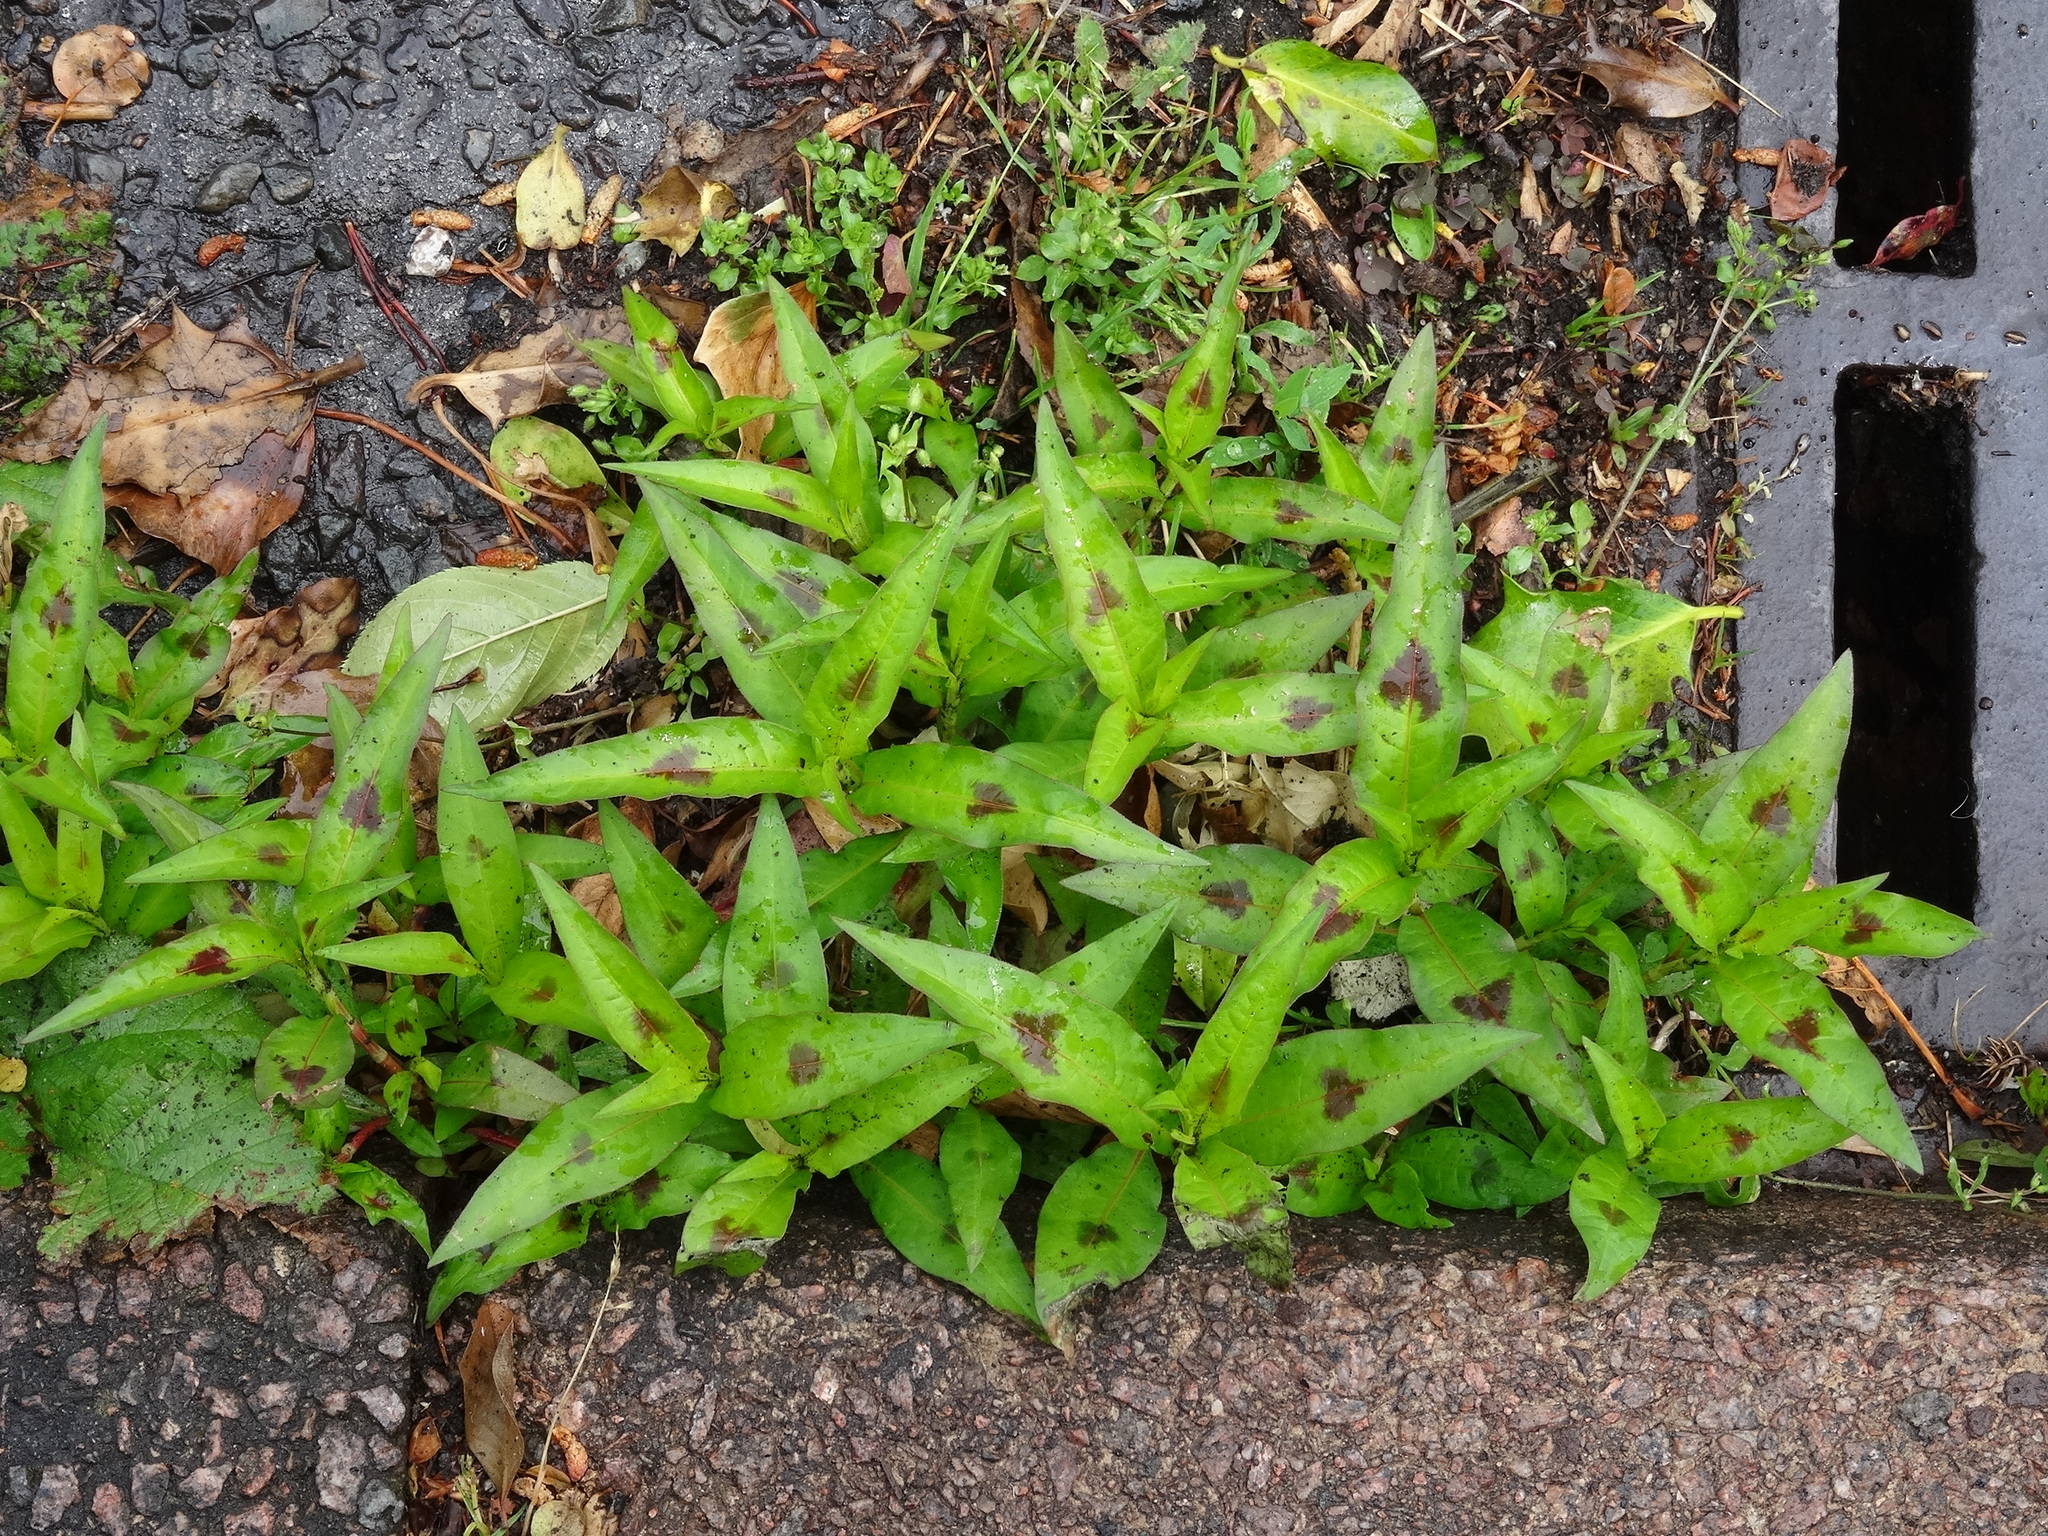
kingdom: Plantae
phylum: Tracheophyta
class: Magnoliopsida
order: Caryophyllales
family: Polygonaceae
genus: Persicaria
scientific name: Persicaria maculosa
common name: Redshank
